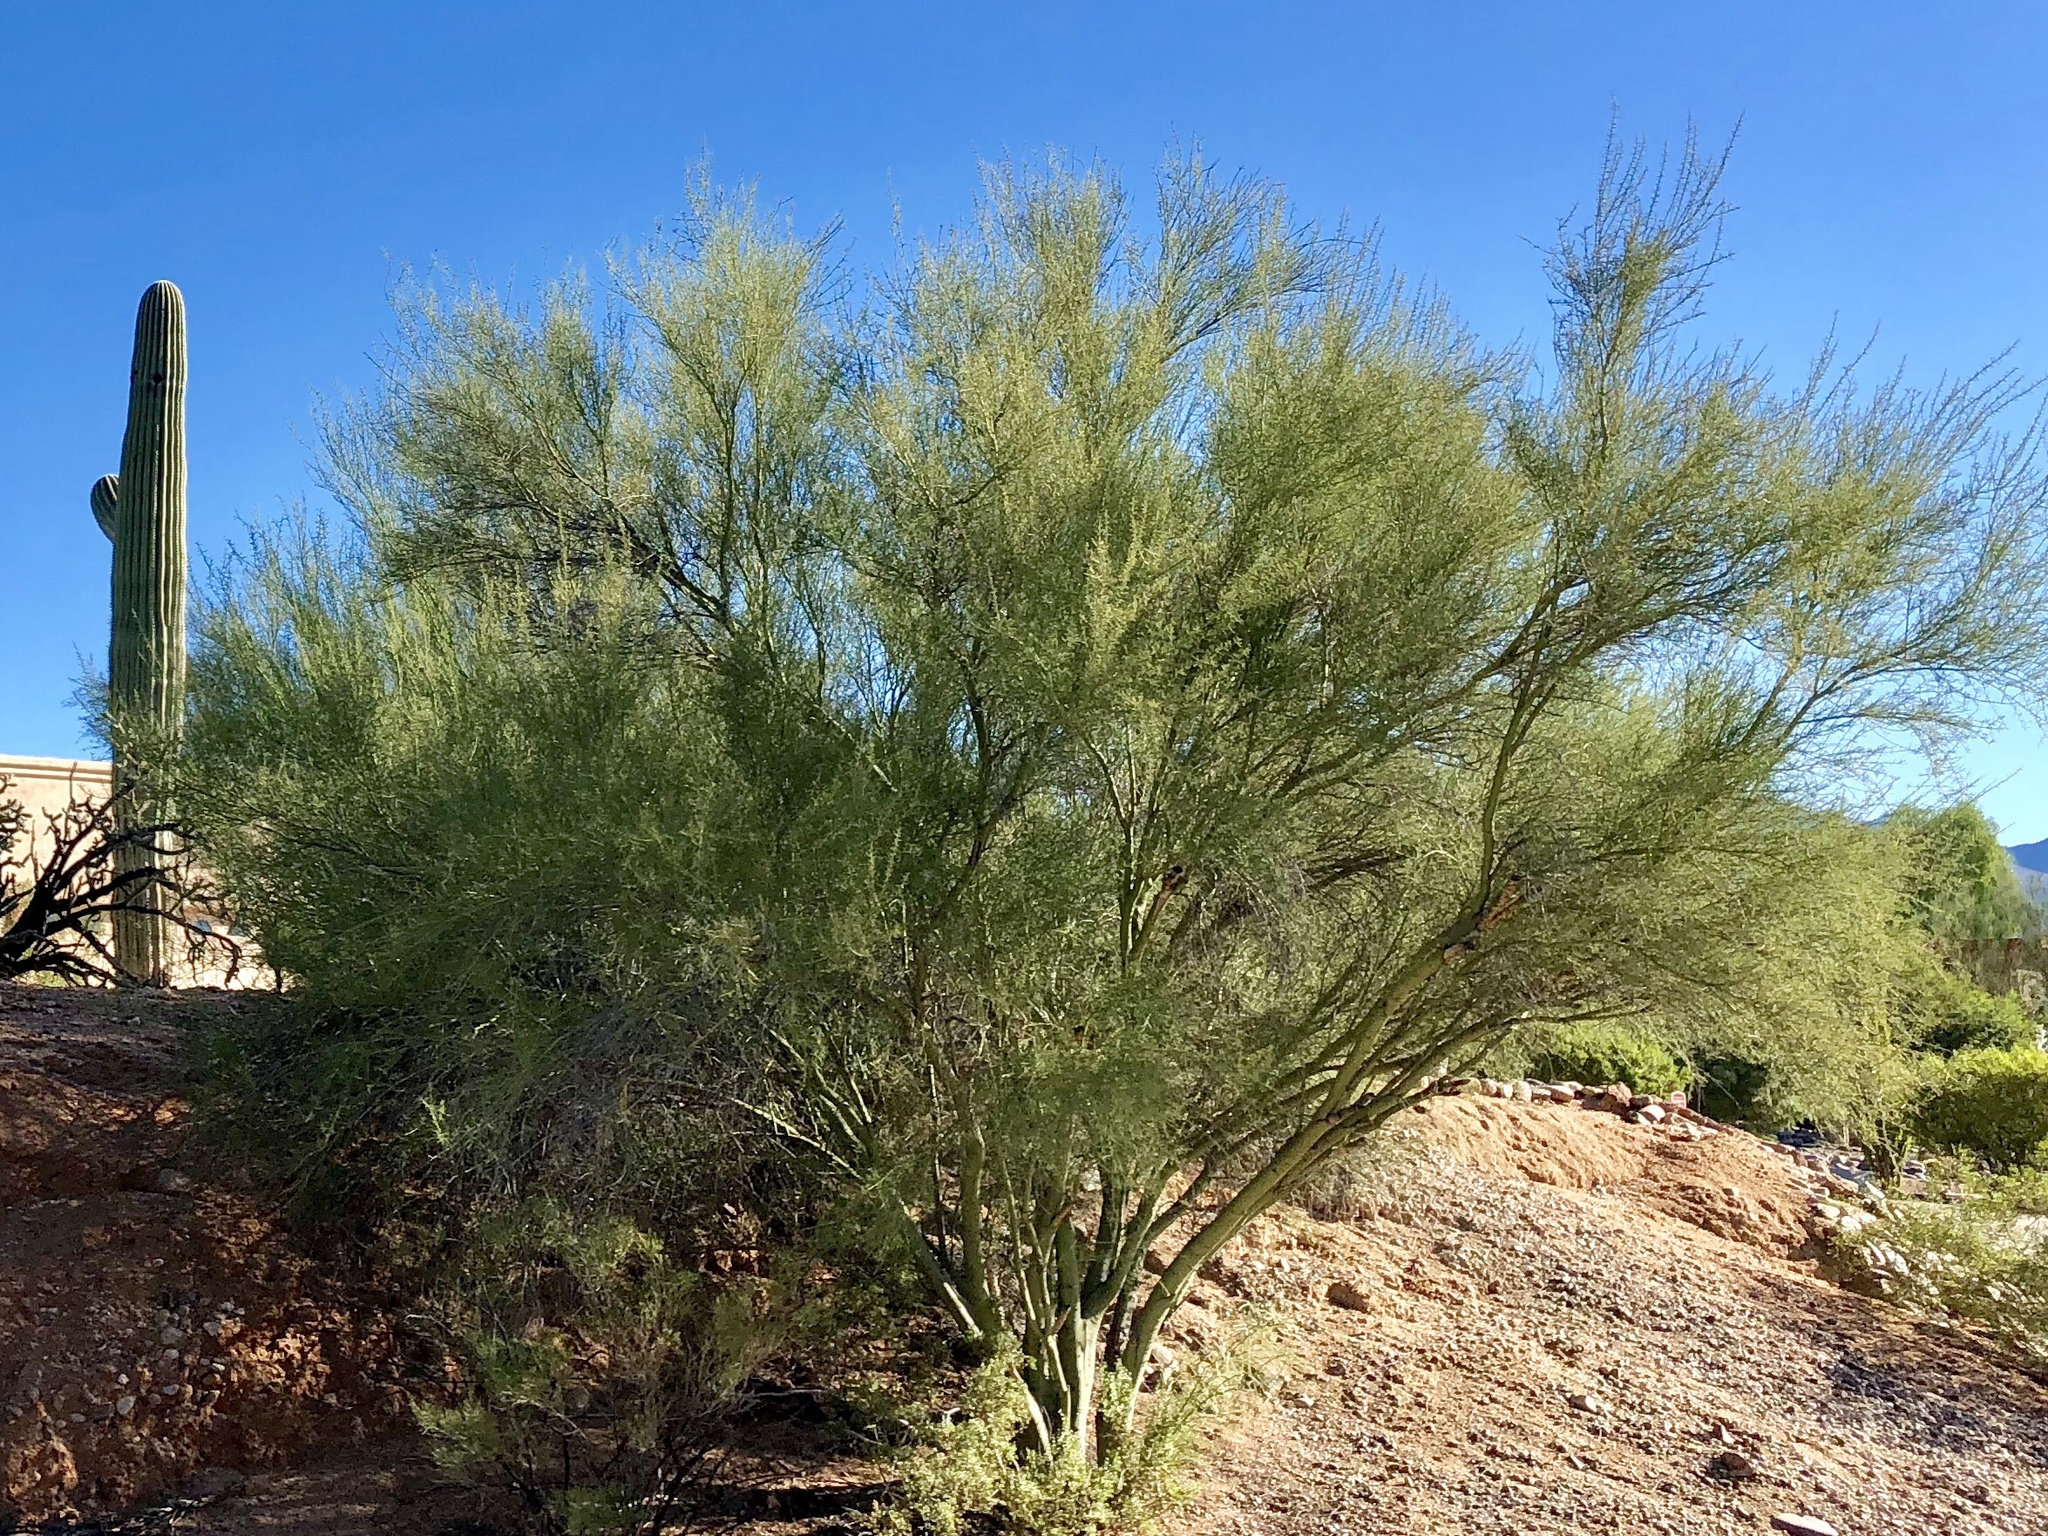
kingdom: Plantae
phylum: Tracheophyta
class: Magnoliopsida
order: Fabales
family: Fabaceae
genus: Parkinsonia
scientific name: Parkinsonia microphylla
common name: Yellow paloverde
